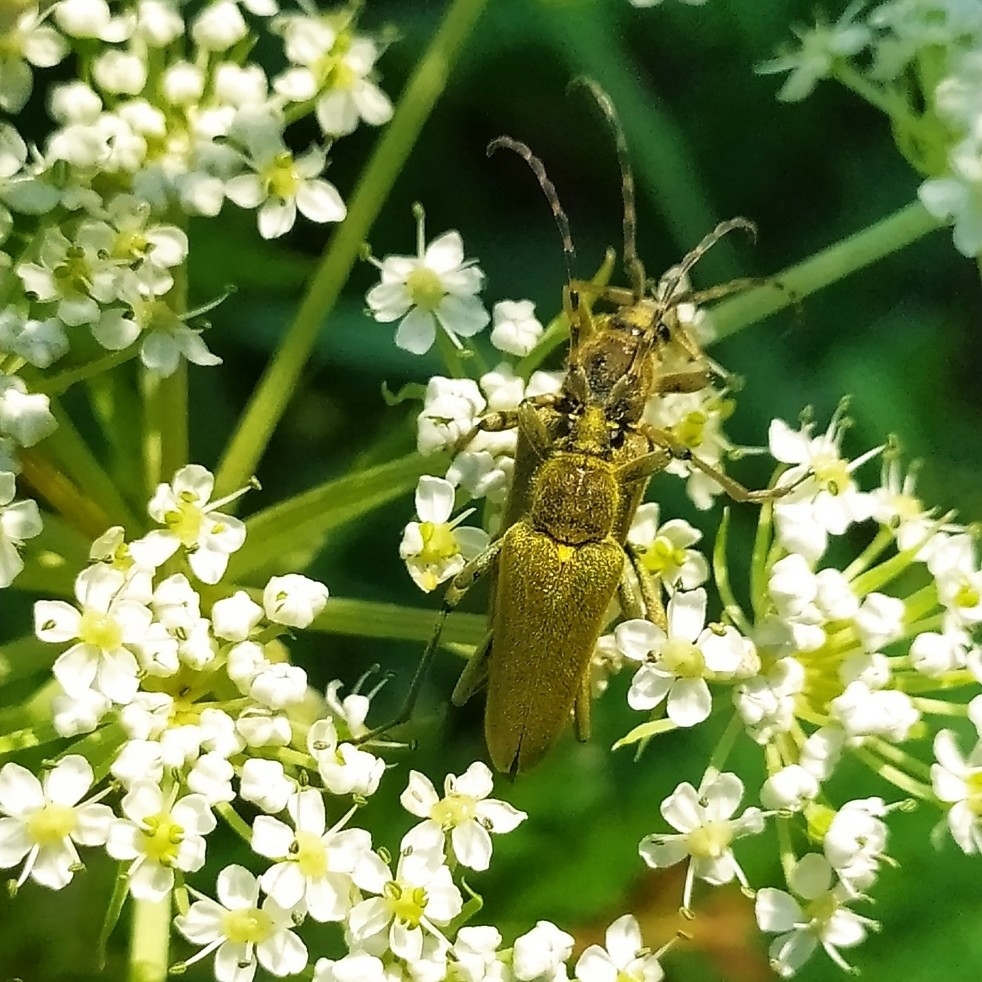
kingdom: Animalia
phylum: Arthropoda
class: Insecta
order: Coleoptera
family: Cerambycidae
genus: Lepturobosca
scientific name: Lepturobosca virens
